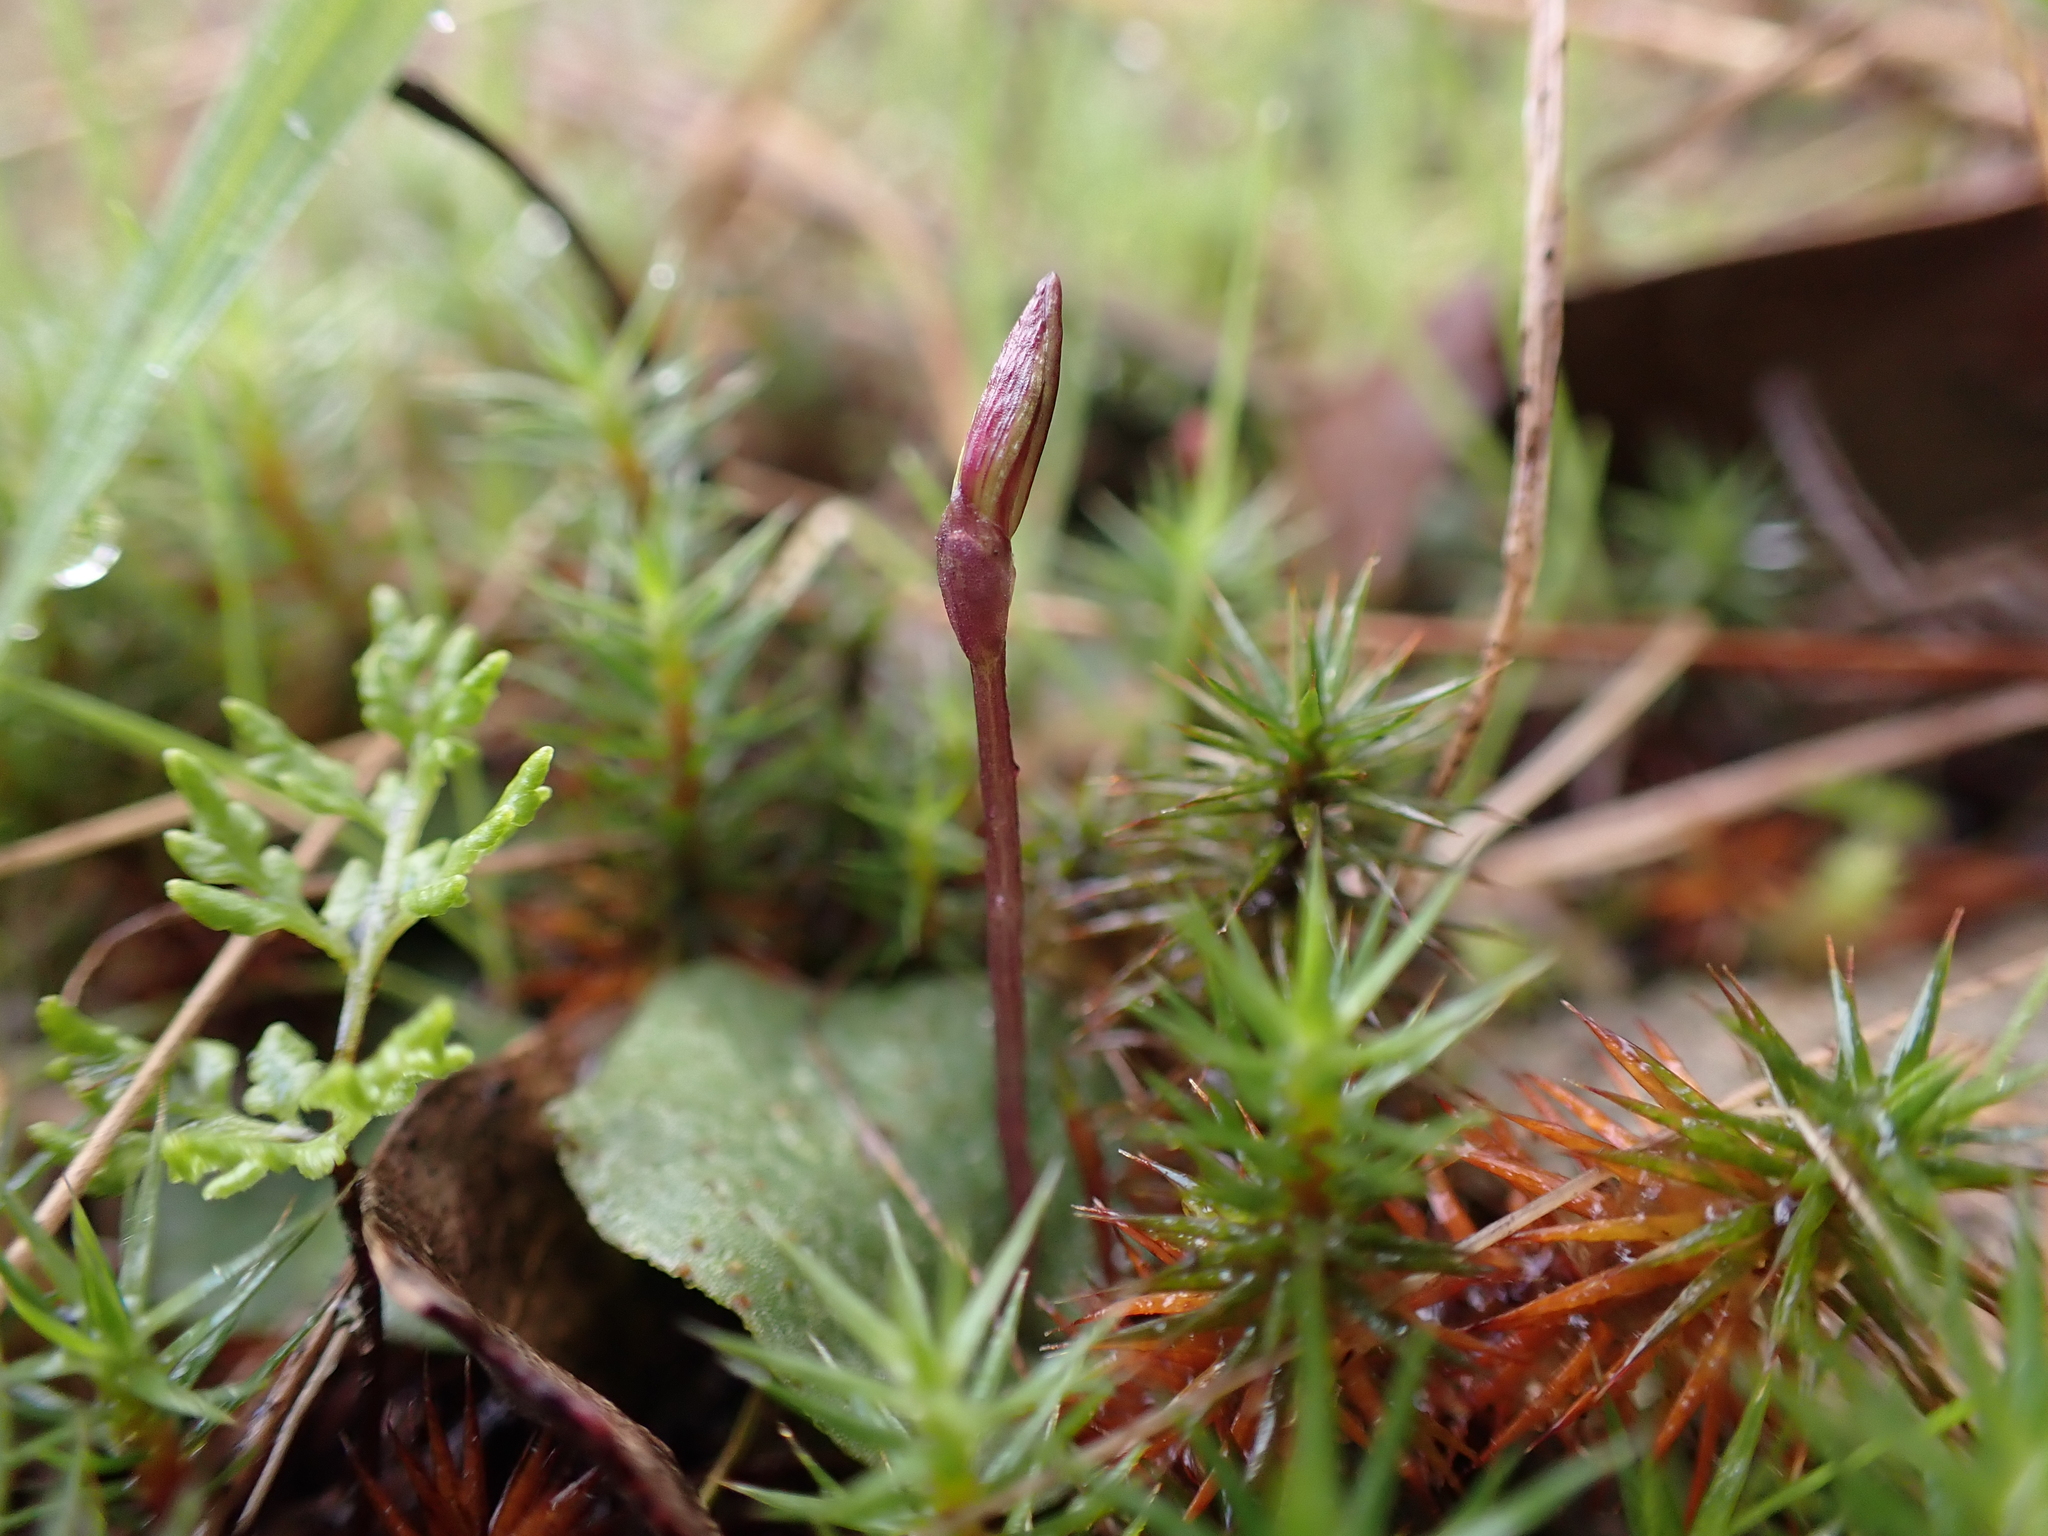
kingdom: Plantae
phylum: Tracheophyta
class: Liliopsida
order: Asparagales
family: Orchidaceae
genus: Cyrtostylis
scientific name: Cyrtostylis reniformis
